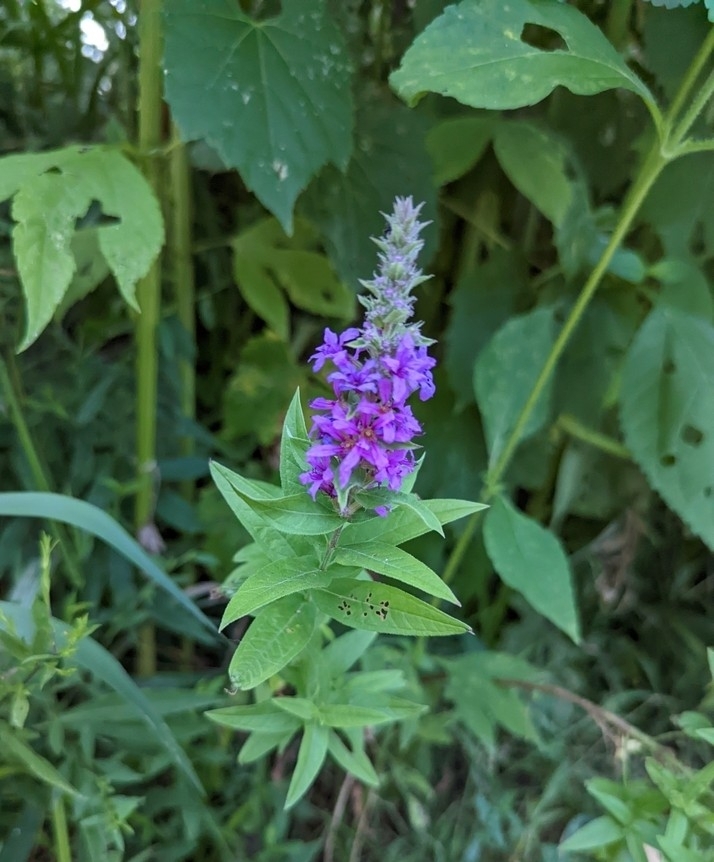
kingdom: Plantae
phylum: Tracheophyta
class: Magnoliopsida
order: Myrtales
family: Lythraceae
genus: Lythrum
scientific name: Lythrum salicaria
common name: Purple loosestrife
